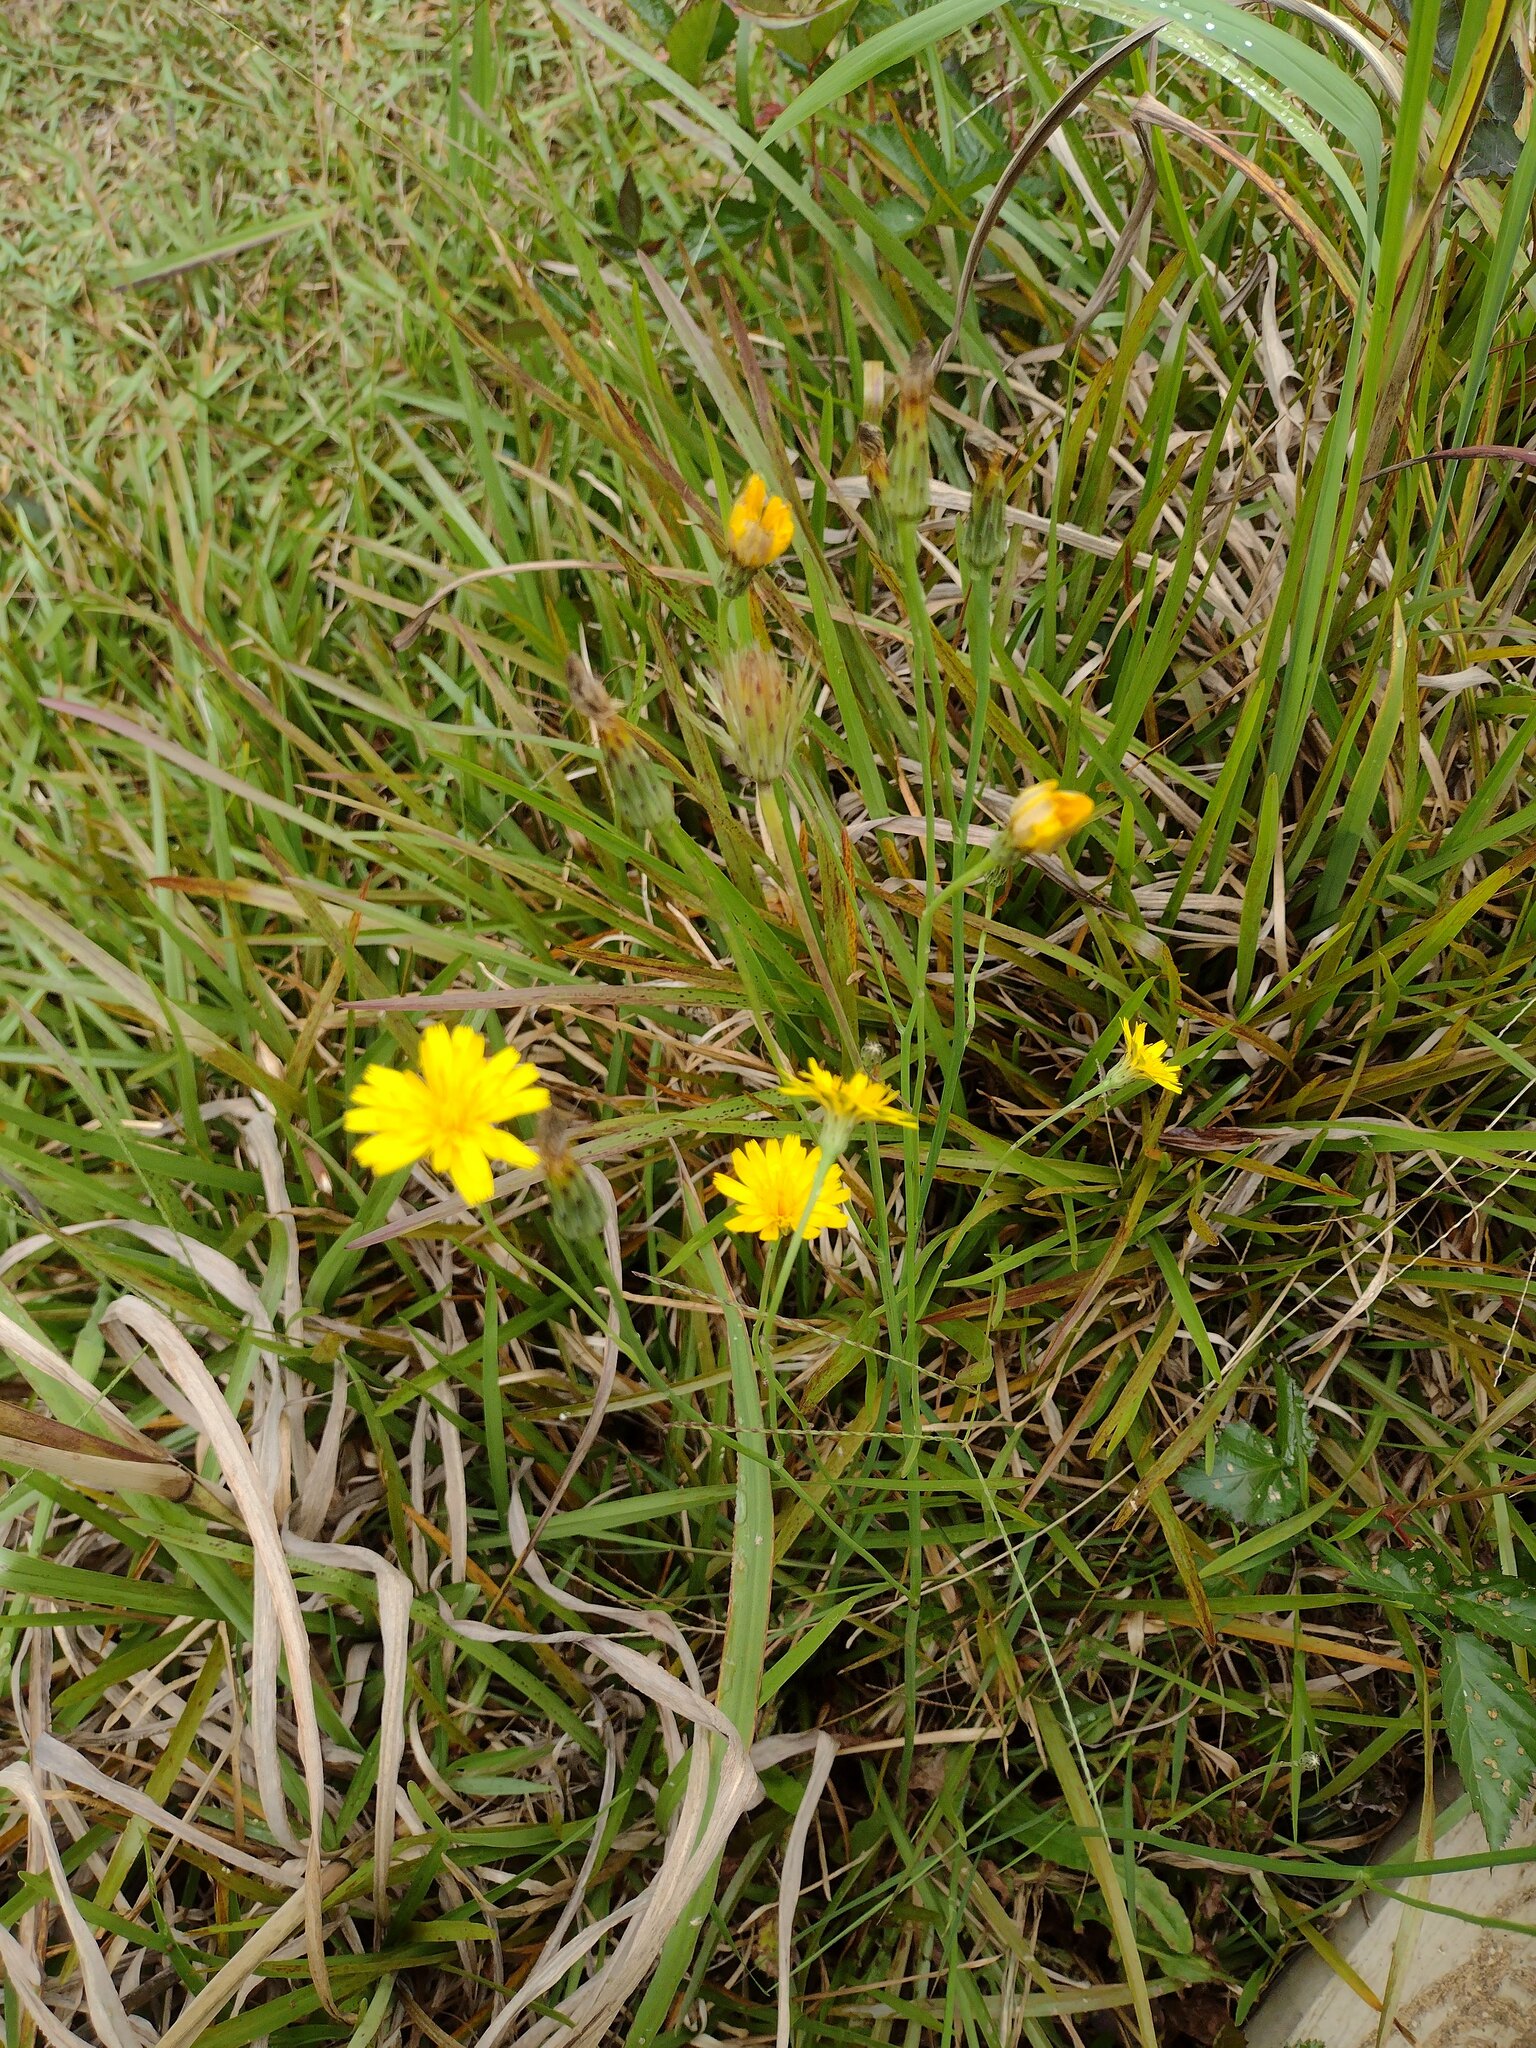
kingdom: Plantae
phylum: Tracheophyta
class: Magnoliopsida
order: Asterales
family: Asteraceae
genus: Hypochaeris
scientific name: Hypochaeris radicata
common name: Flatweed
